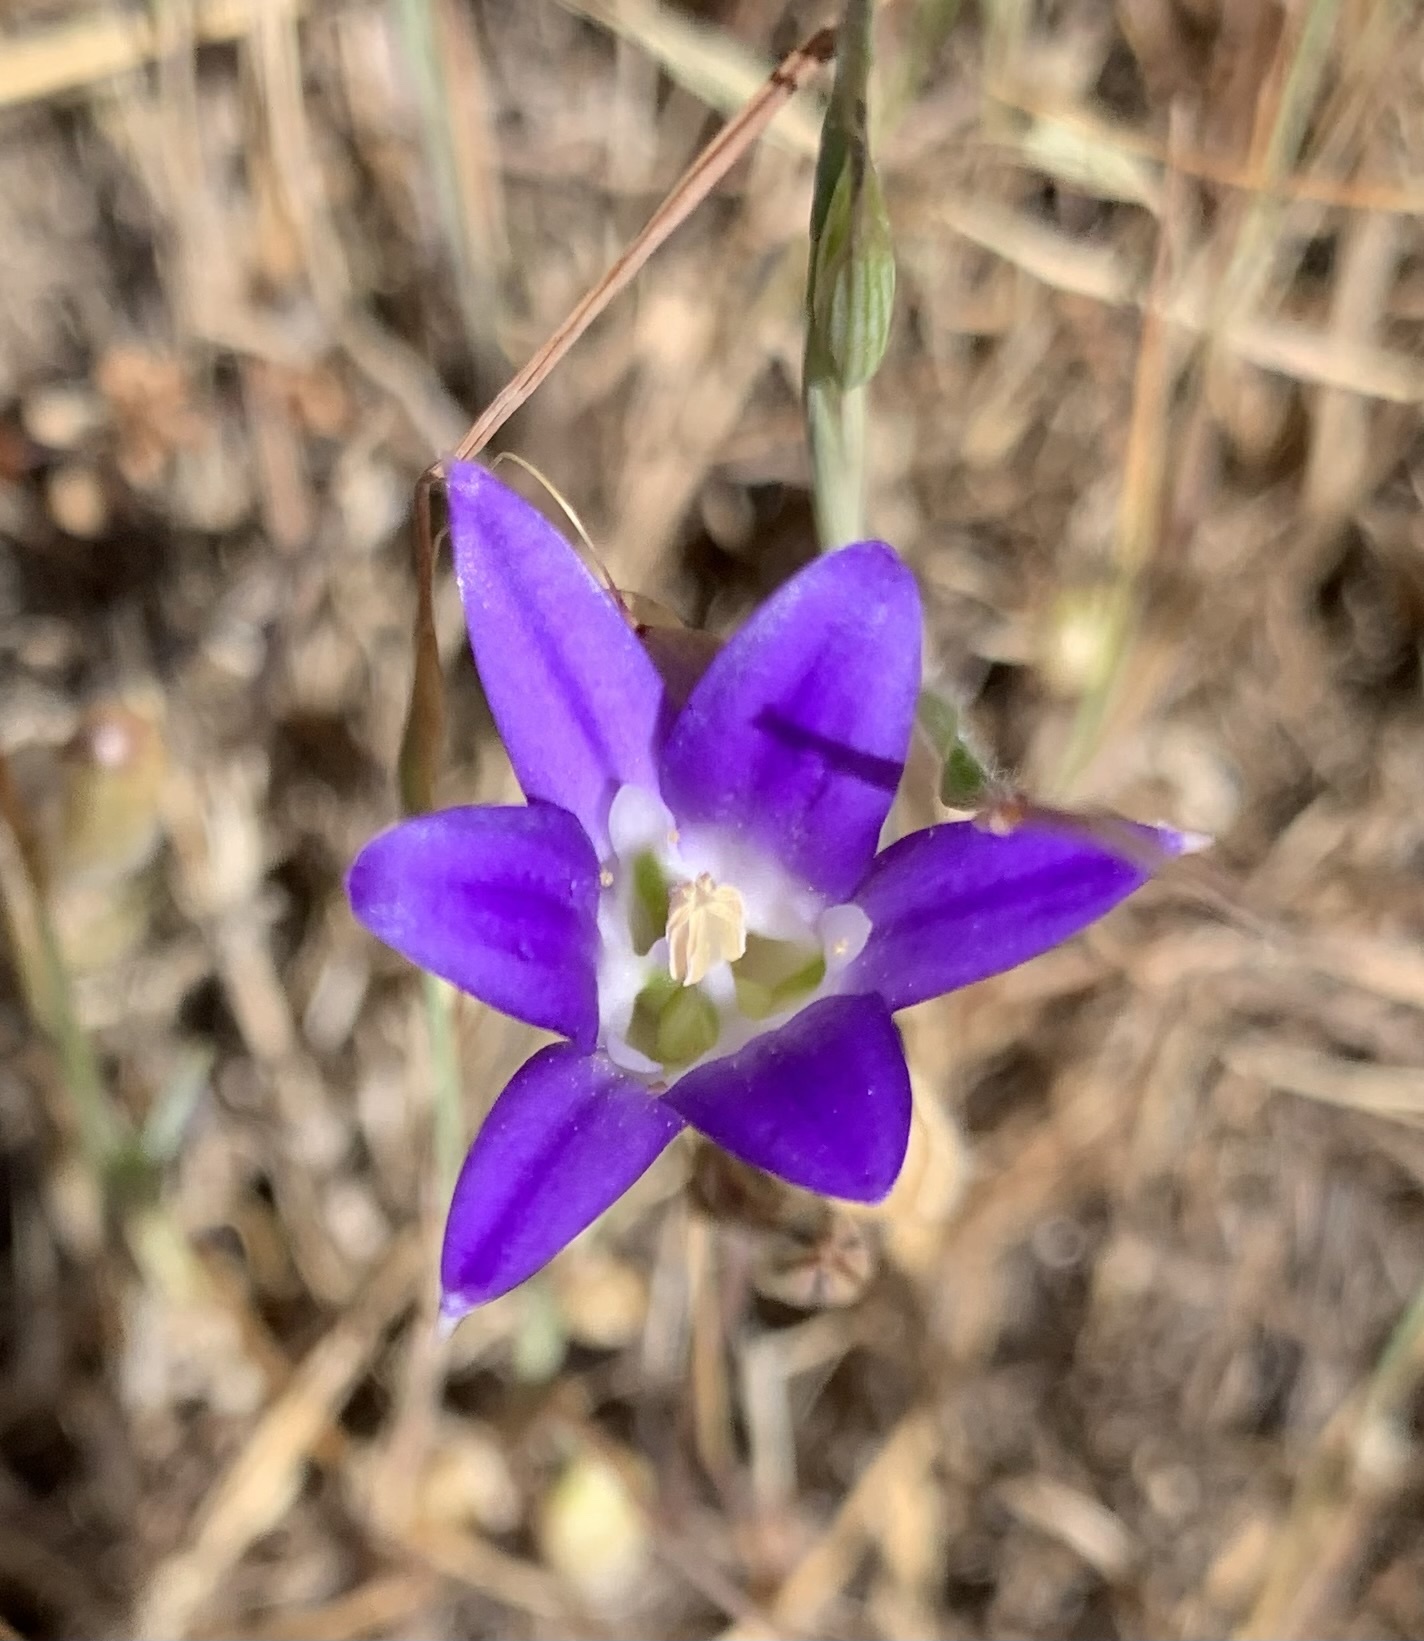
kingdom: Plantae
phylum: Tracheophyta
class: Liliopsida
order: Asparagales
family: Asparagaceae
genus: Brodiaea
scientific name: Brodiaea elegans
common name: Elegant cluster-lily
